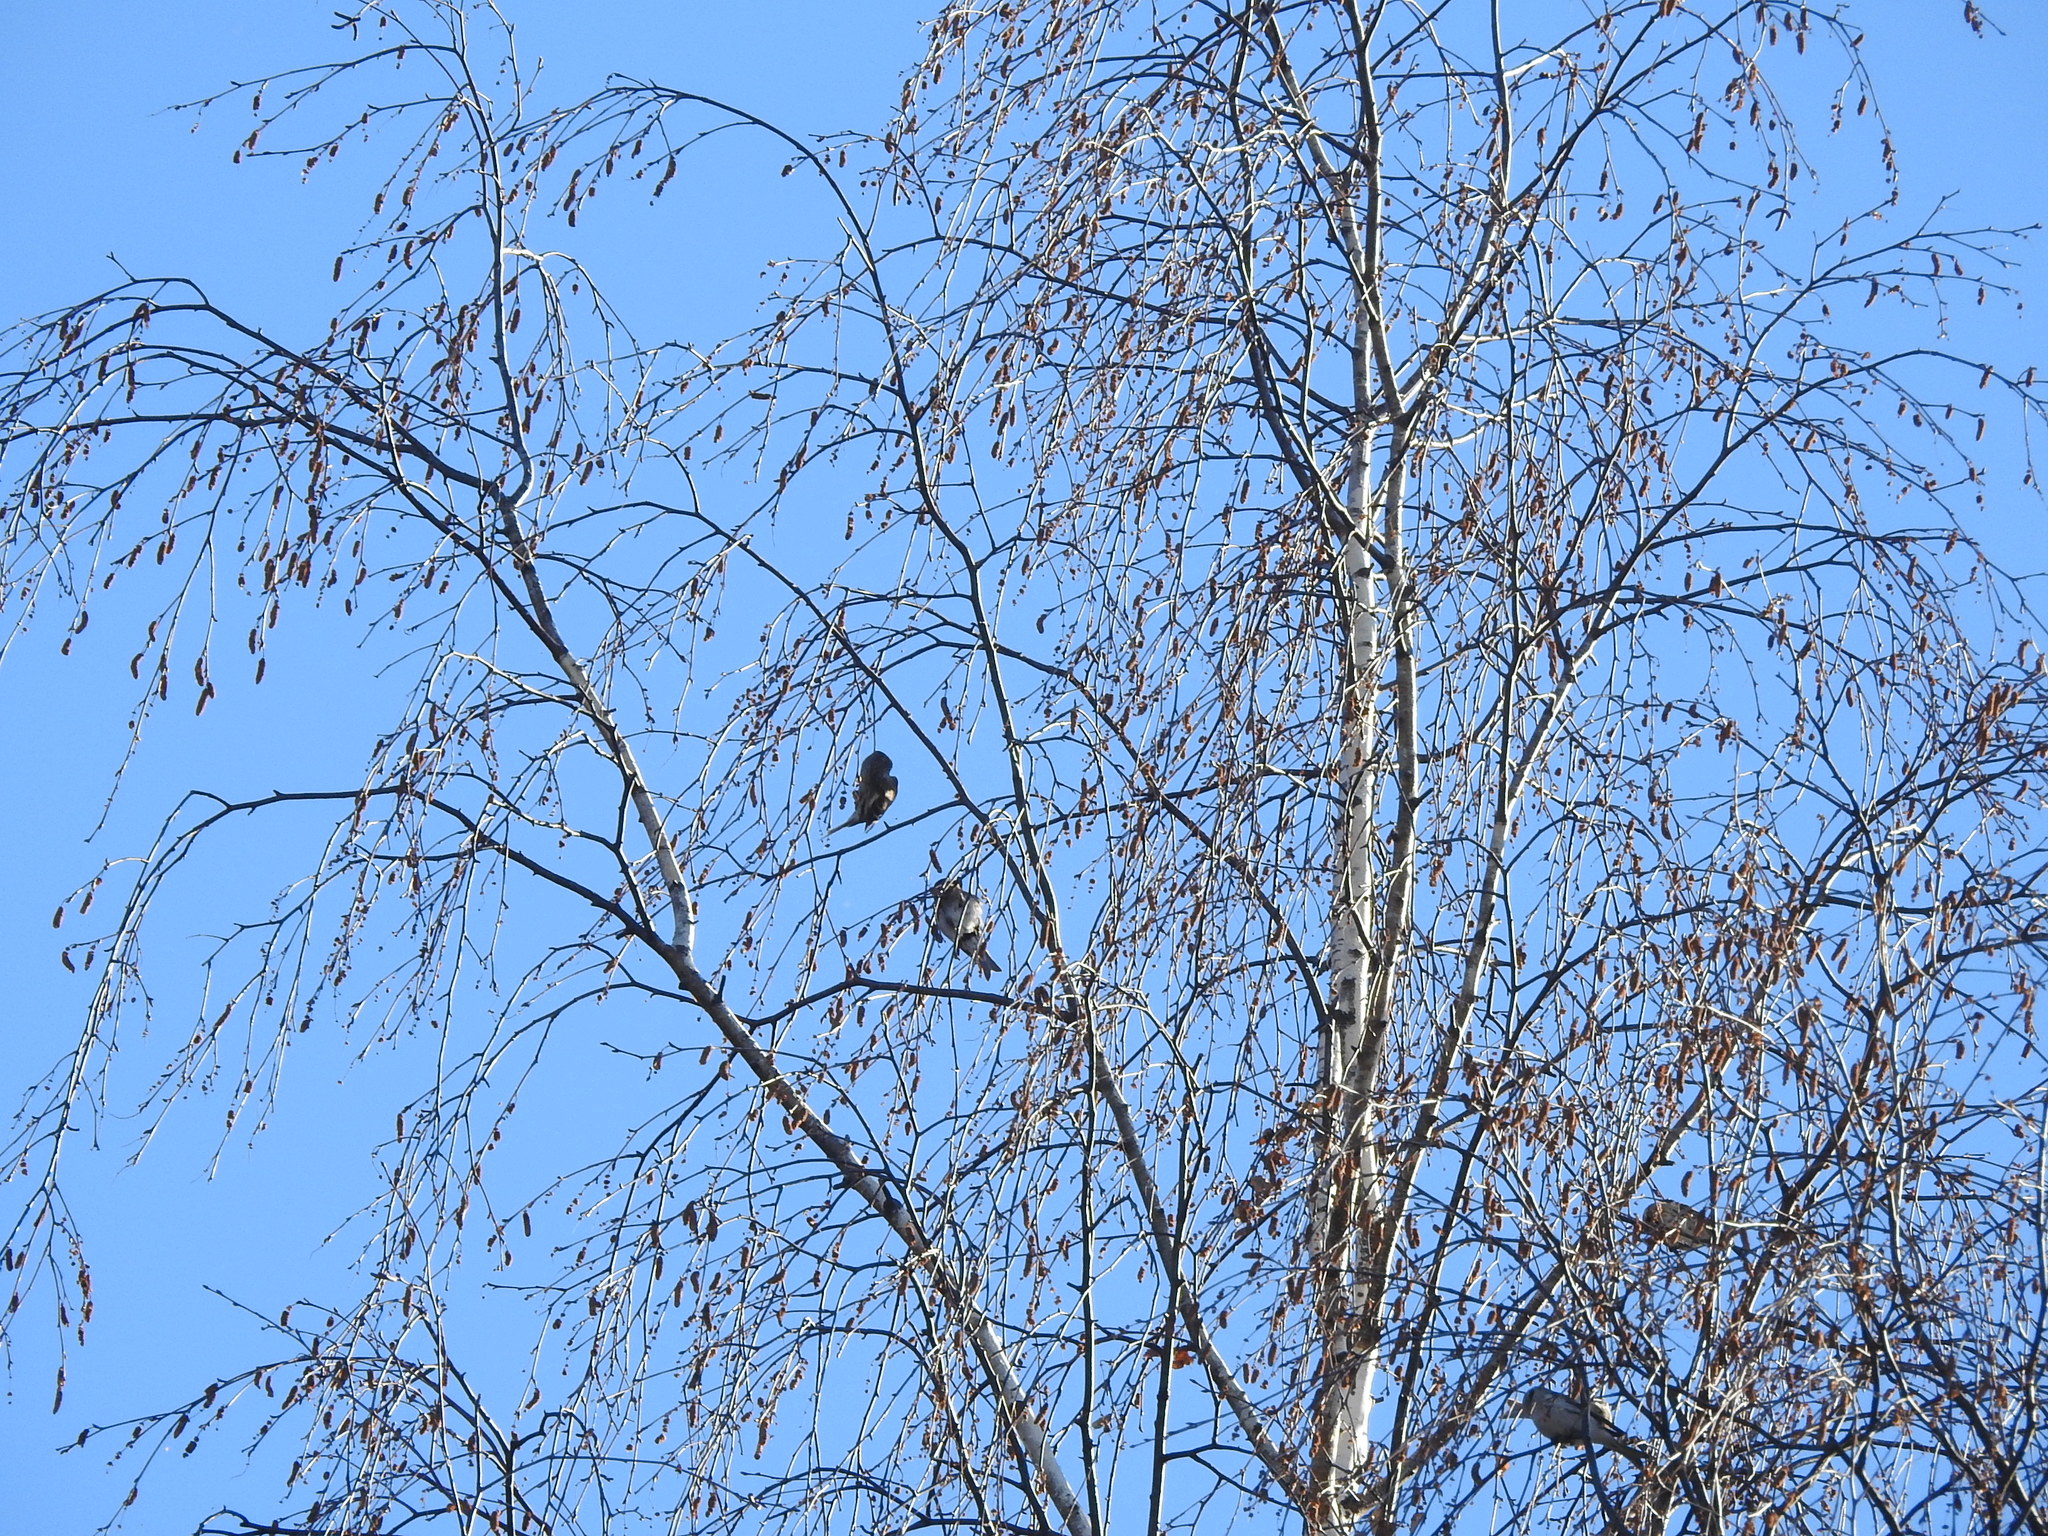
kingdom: Animalia
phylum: Chordata
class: Aves
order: Passeriformes
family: Fringillidae
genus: Acanthis
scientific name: Acanthis flammea
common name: Common redpoll
